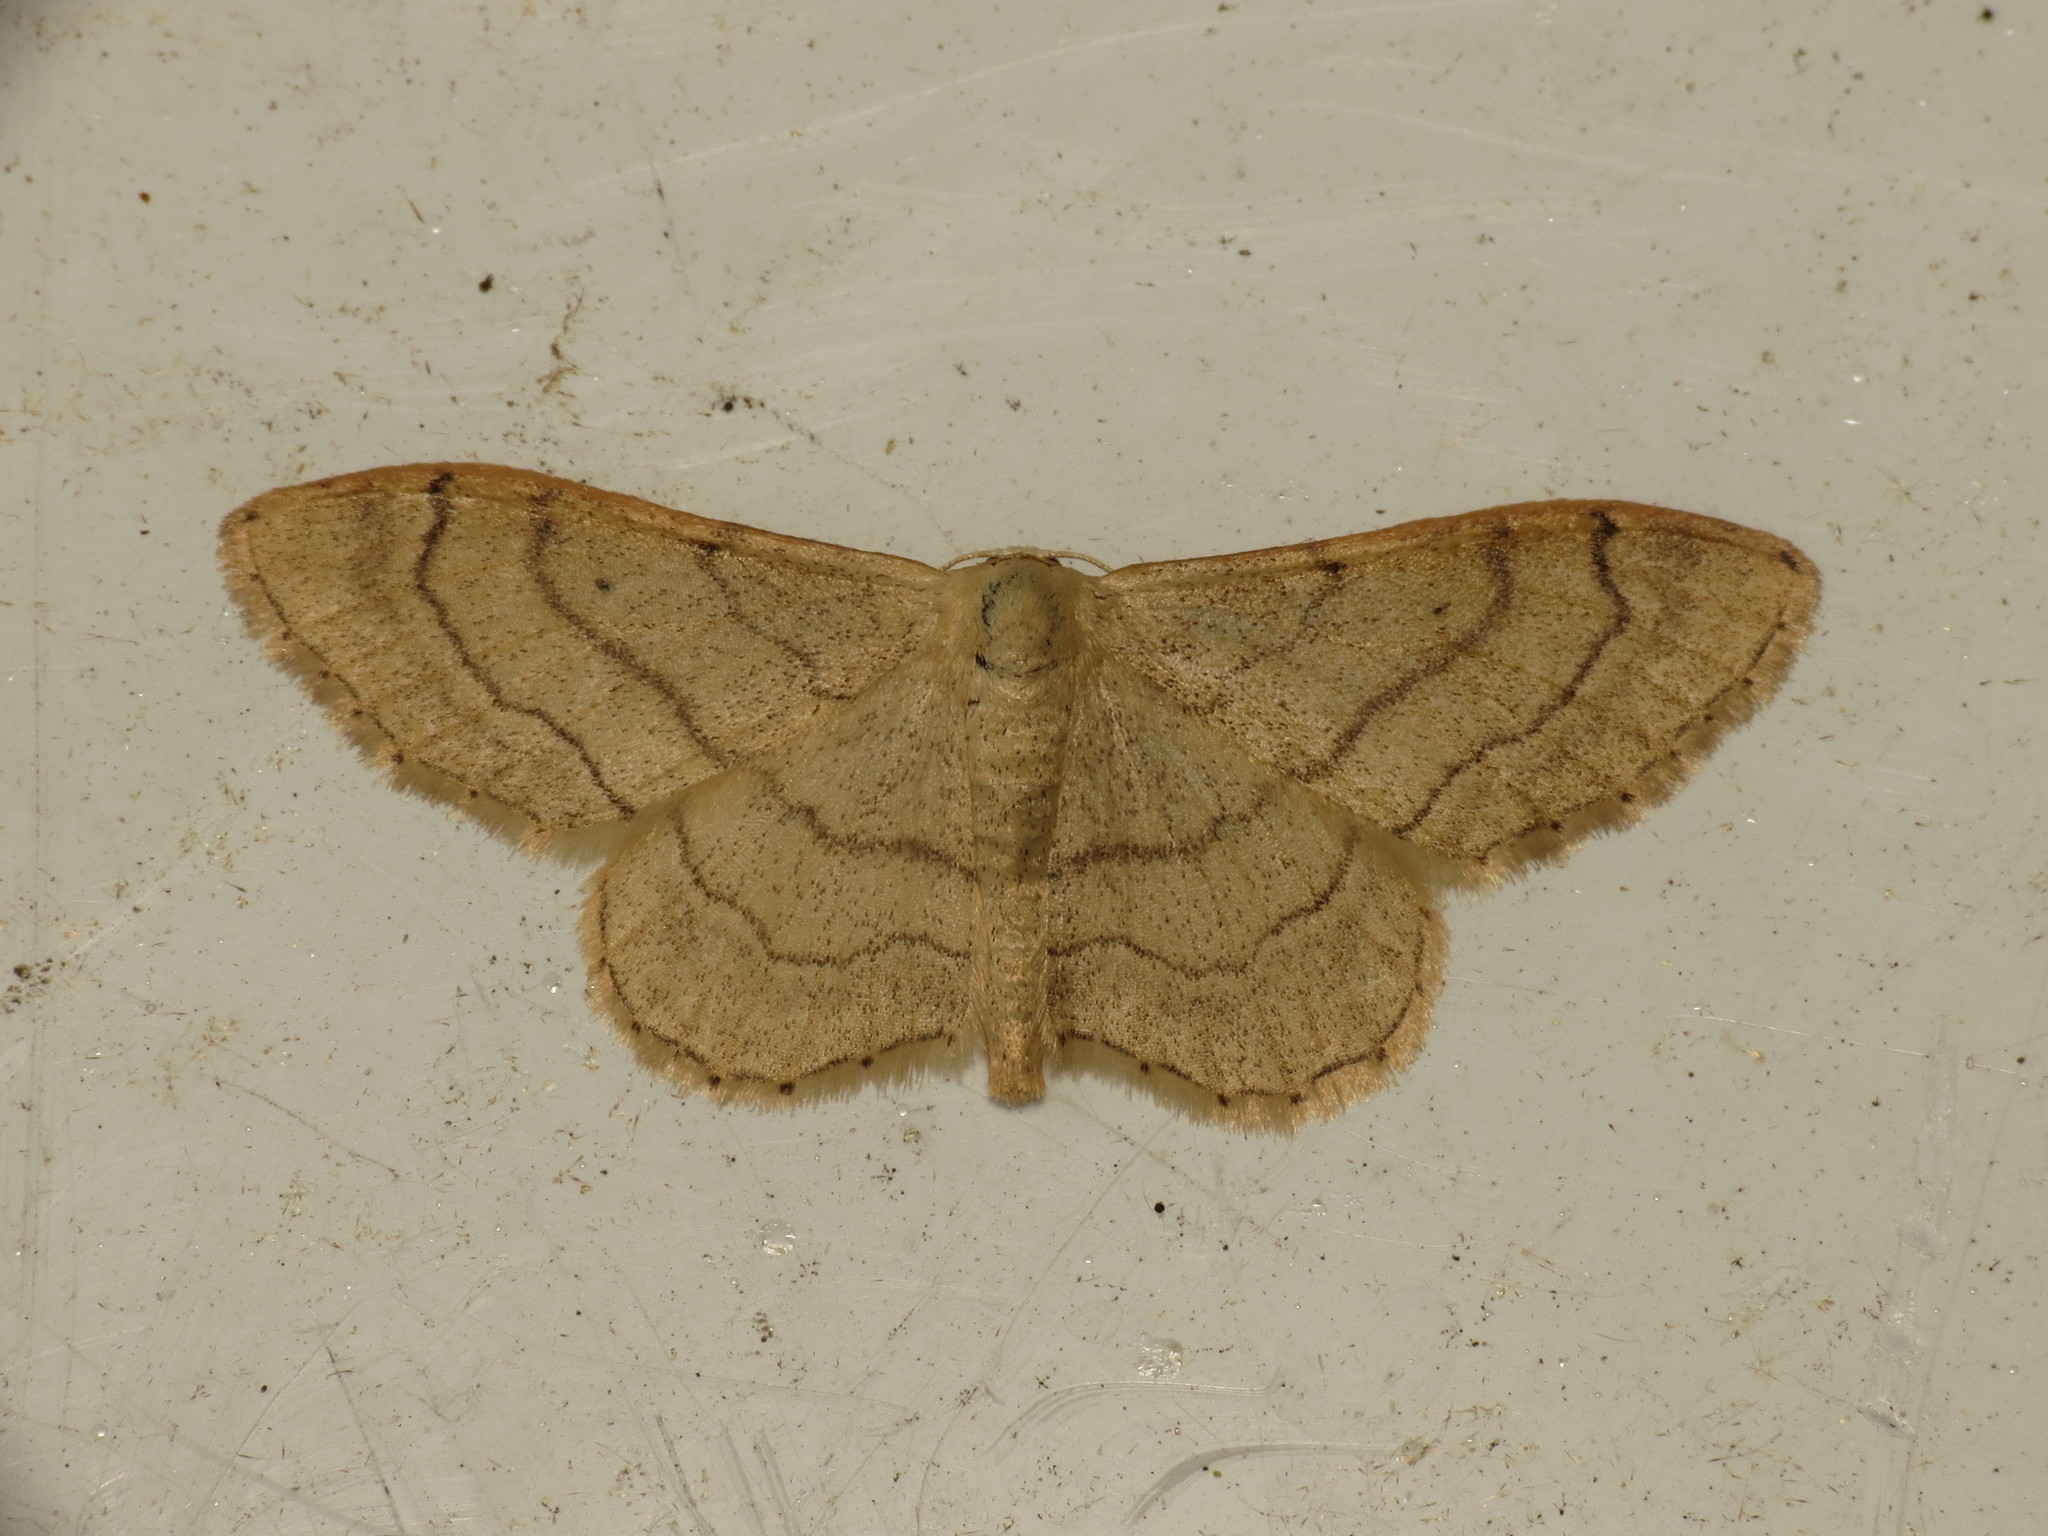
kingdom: Animalia
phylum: Arthropoda
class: Insecta
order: Lepidoptera
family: Geometridae
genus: Idaea
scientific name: Idaea aversata
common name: Riband wave
